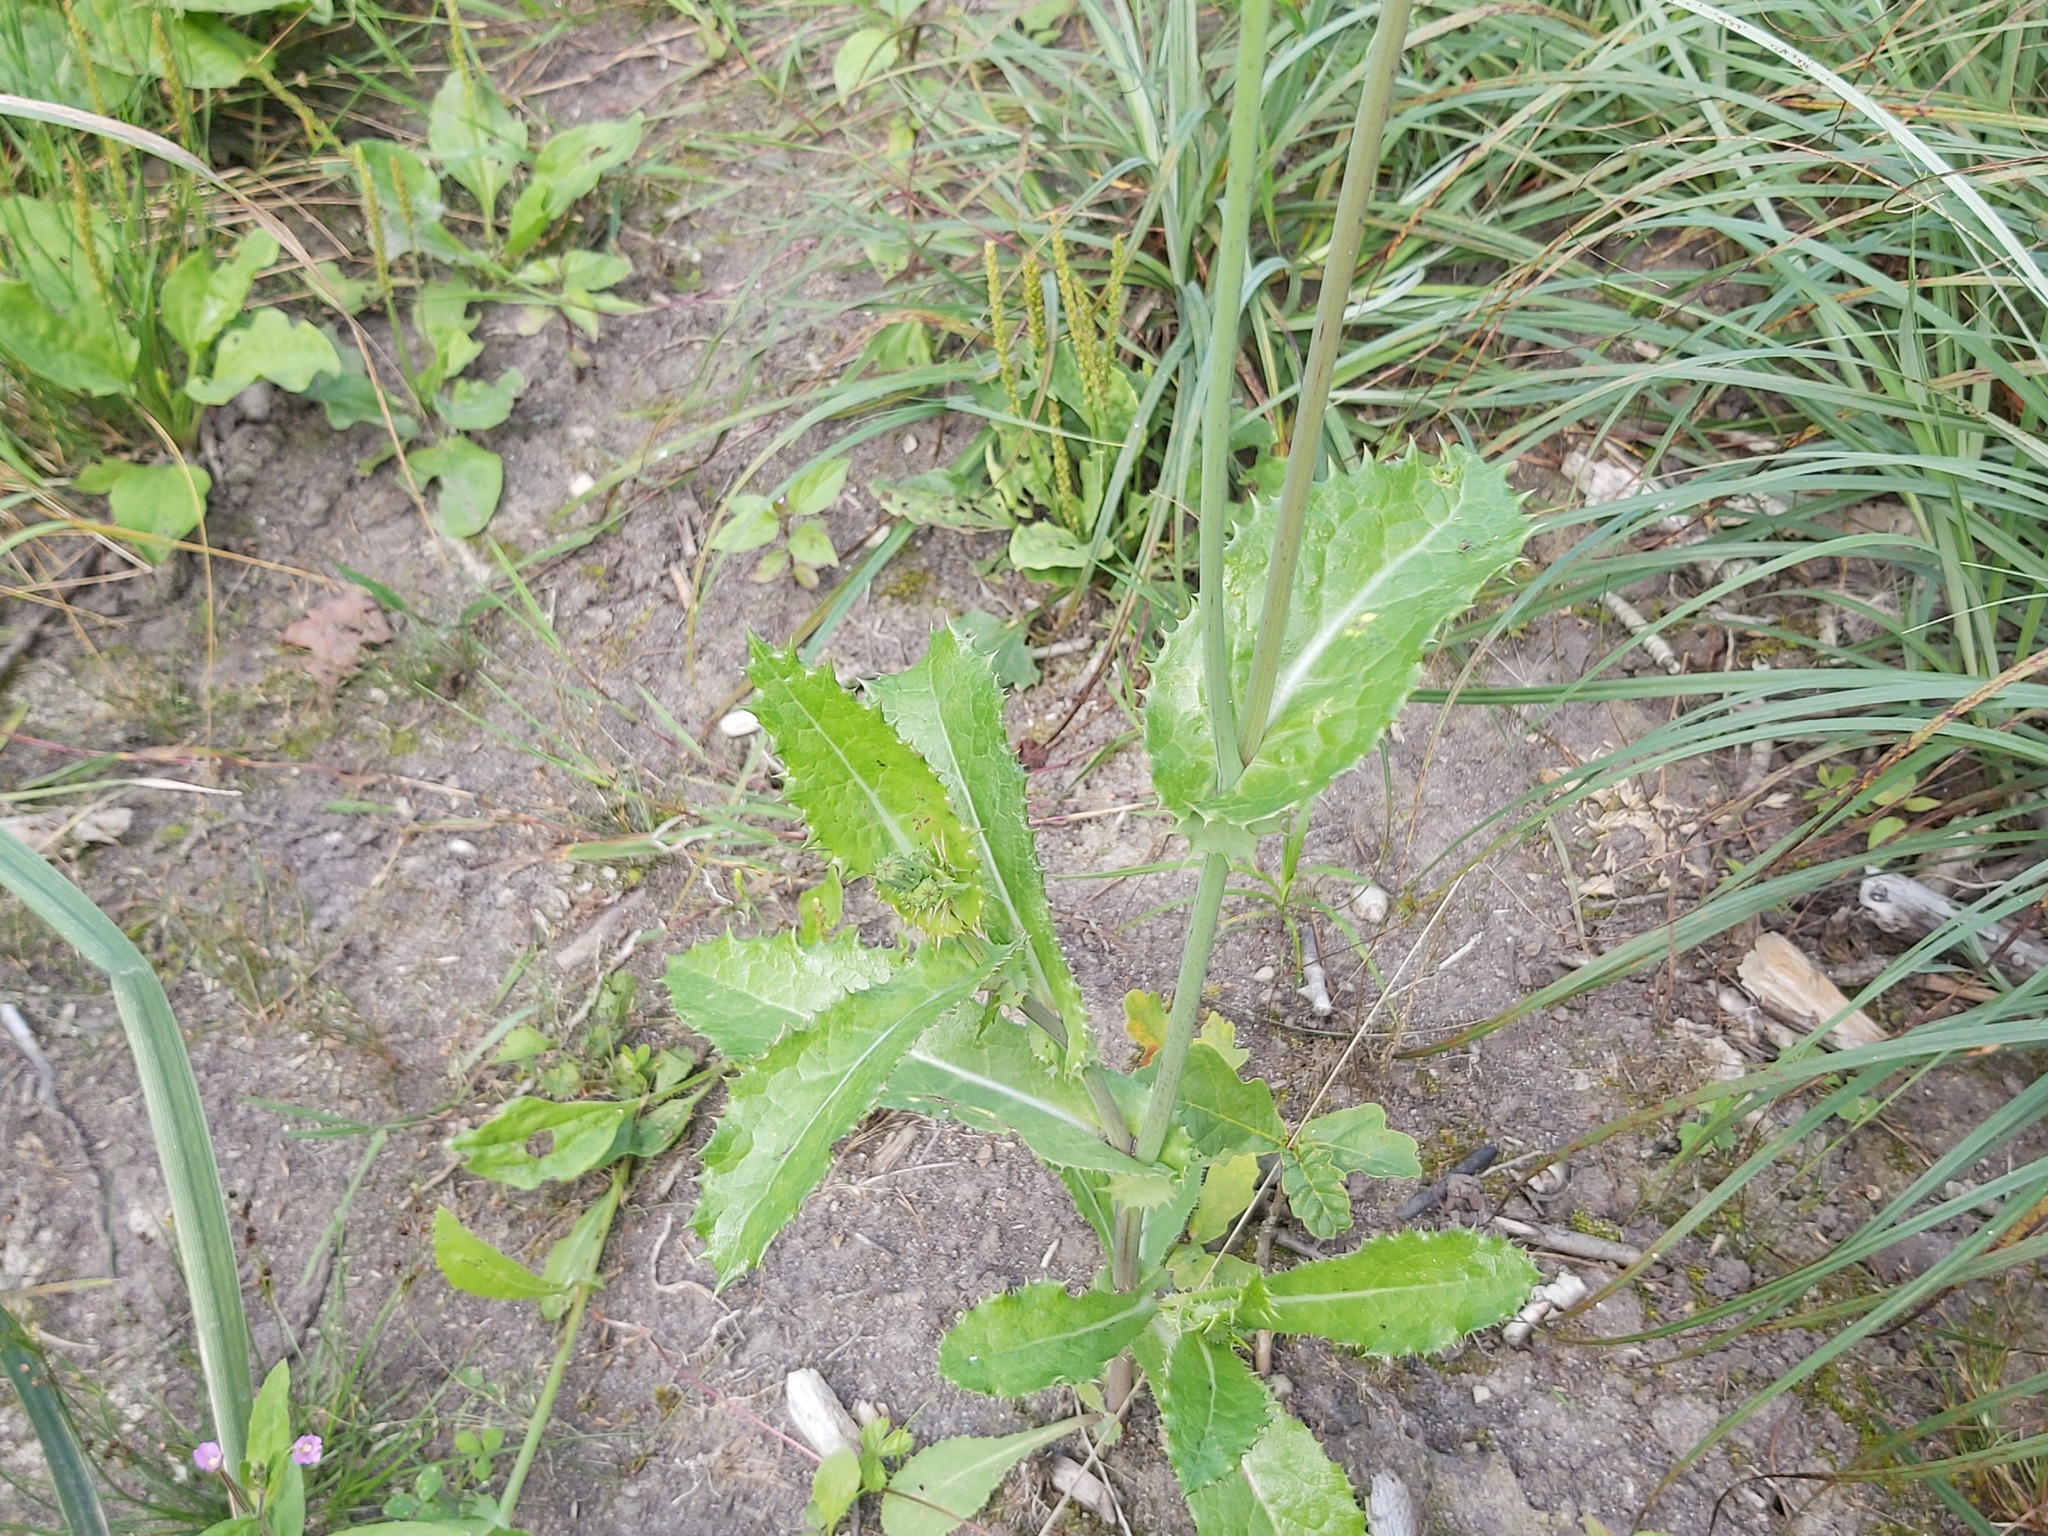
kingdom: Plantae
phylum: Tracheophyta
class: Magnoliopsida
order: Asterales
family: Asteraceae
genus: Sonchus
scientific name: Sonchus asper
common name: Prickly sow-thistle
